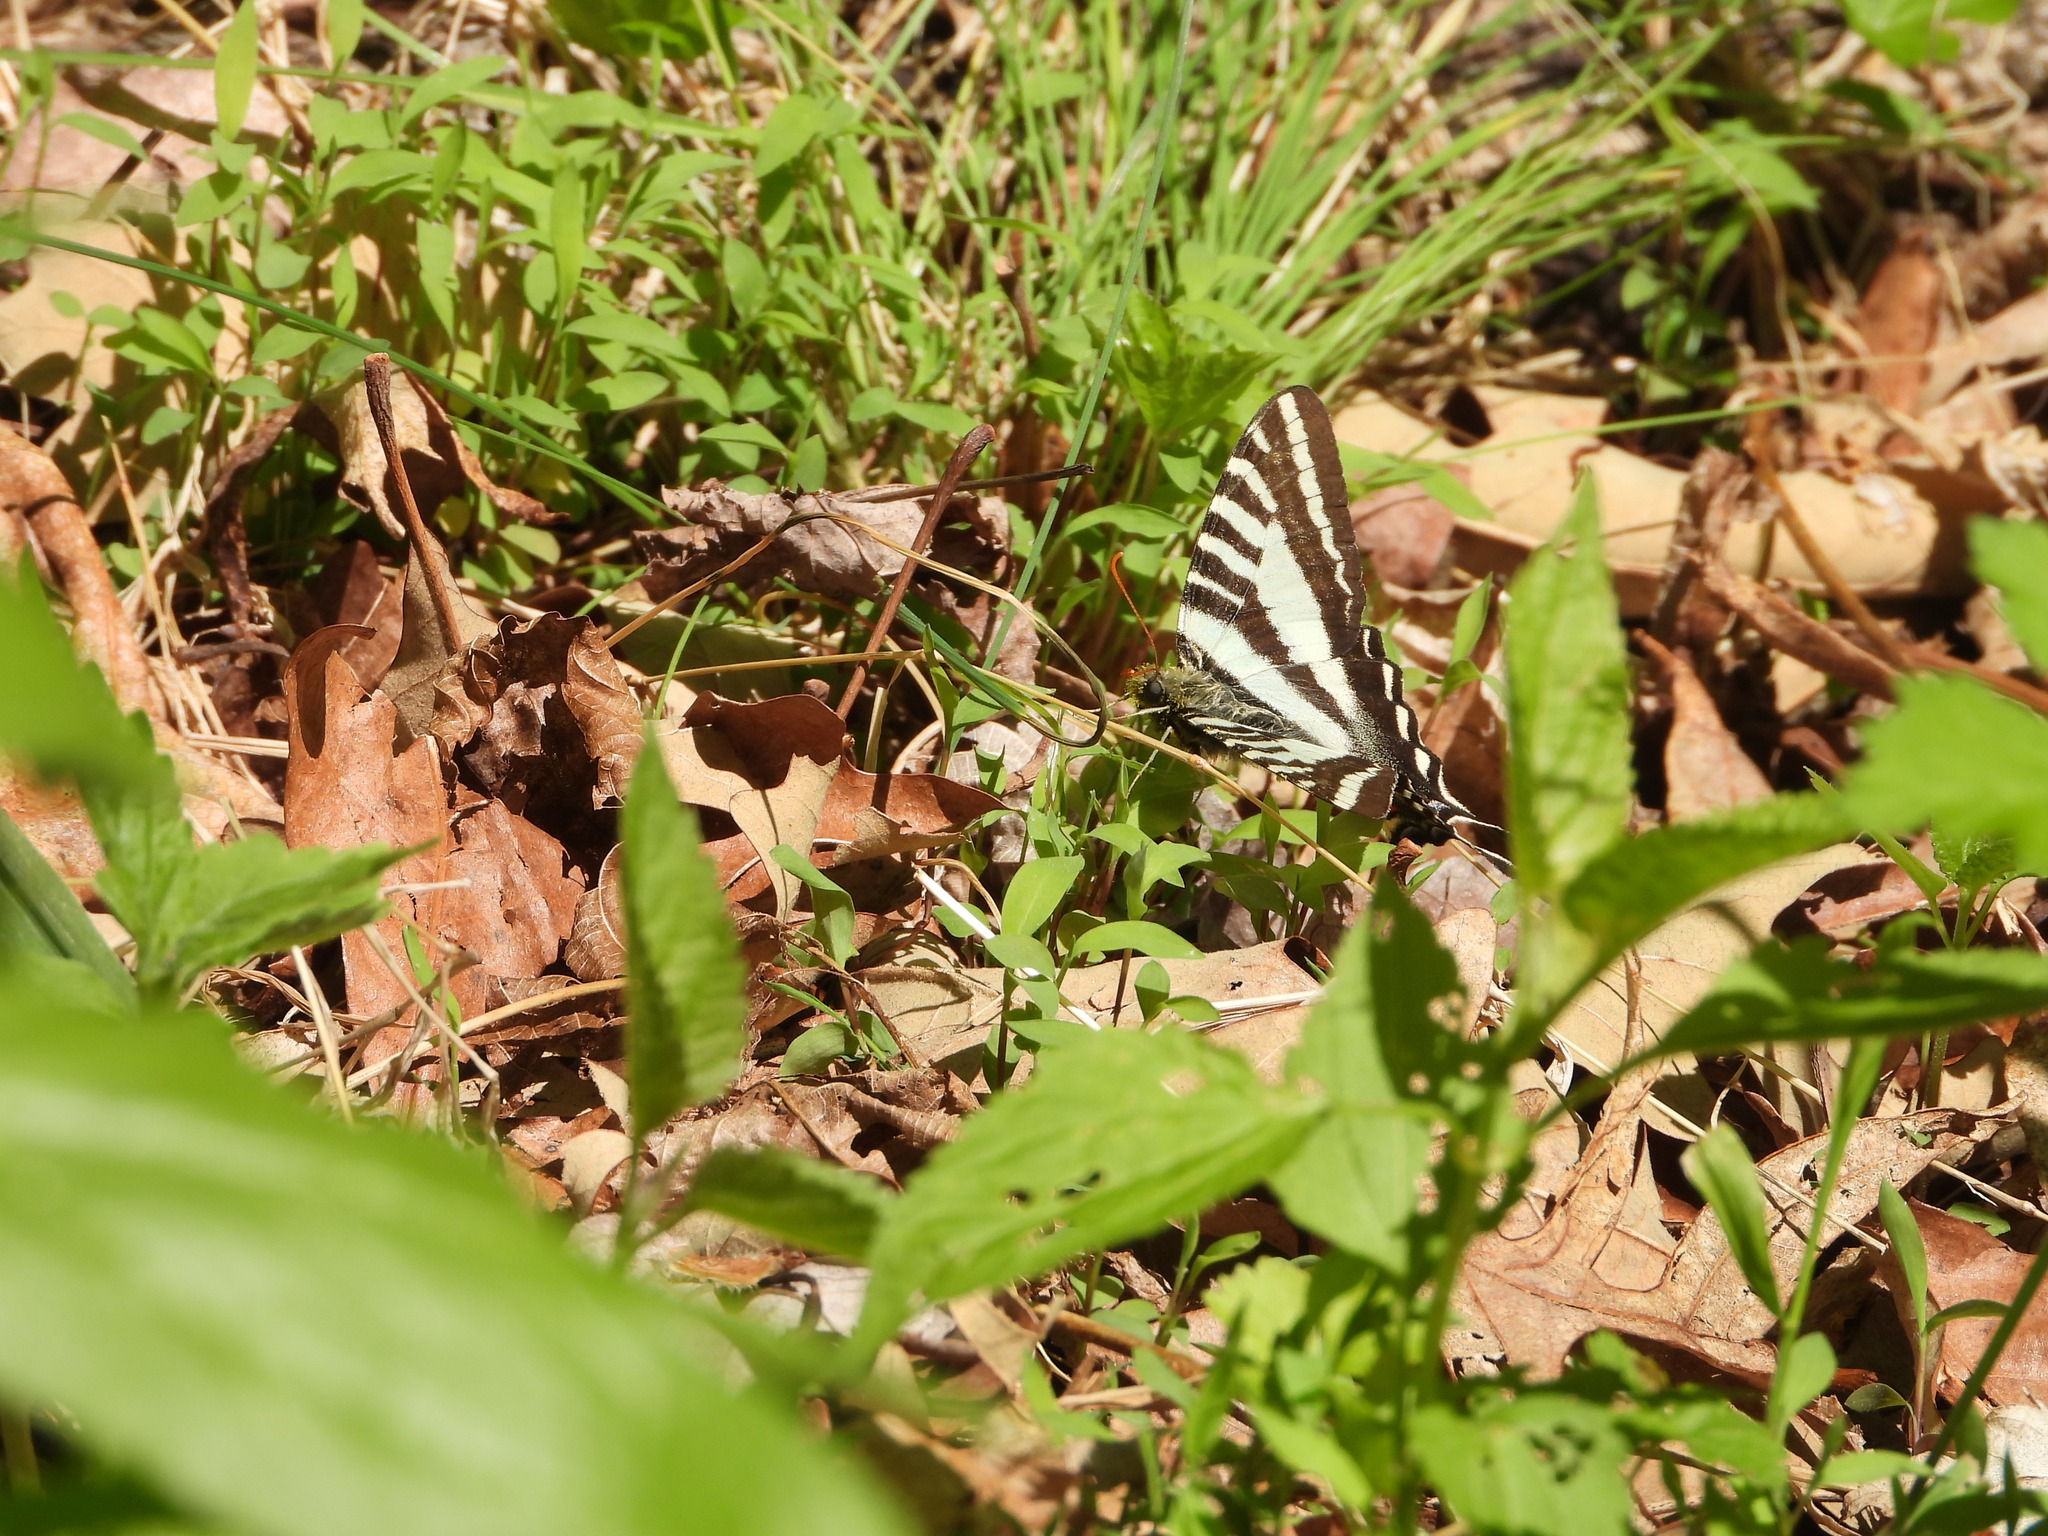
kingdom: Animalia
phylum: Arthropoda
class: Insecta
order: Lepidoptera
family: Papilionidae
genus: Protographium
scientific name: Protographium marcellus
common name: Zebra swallowtail
